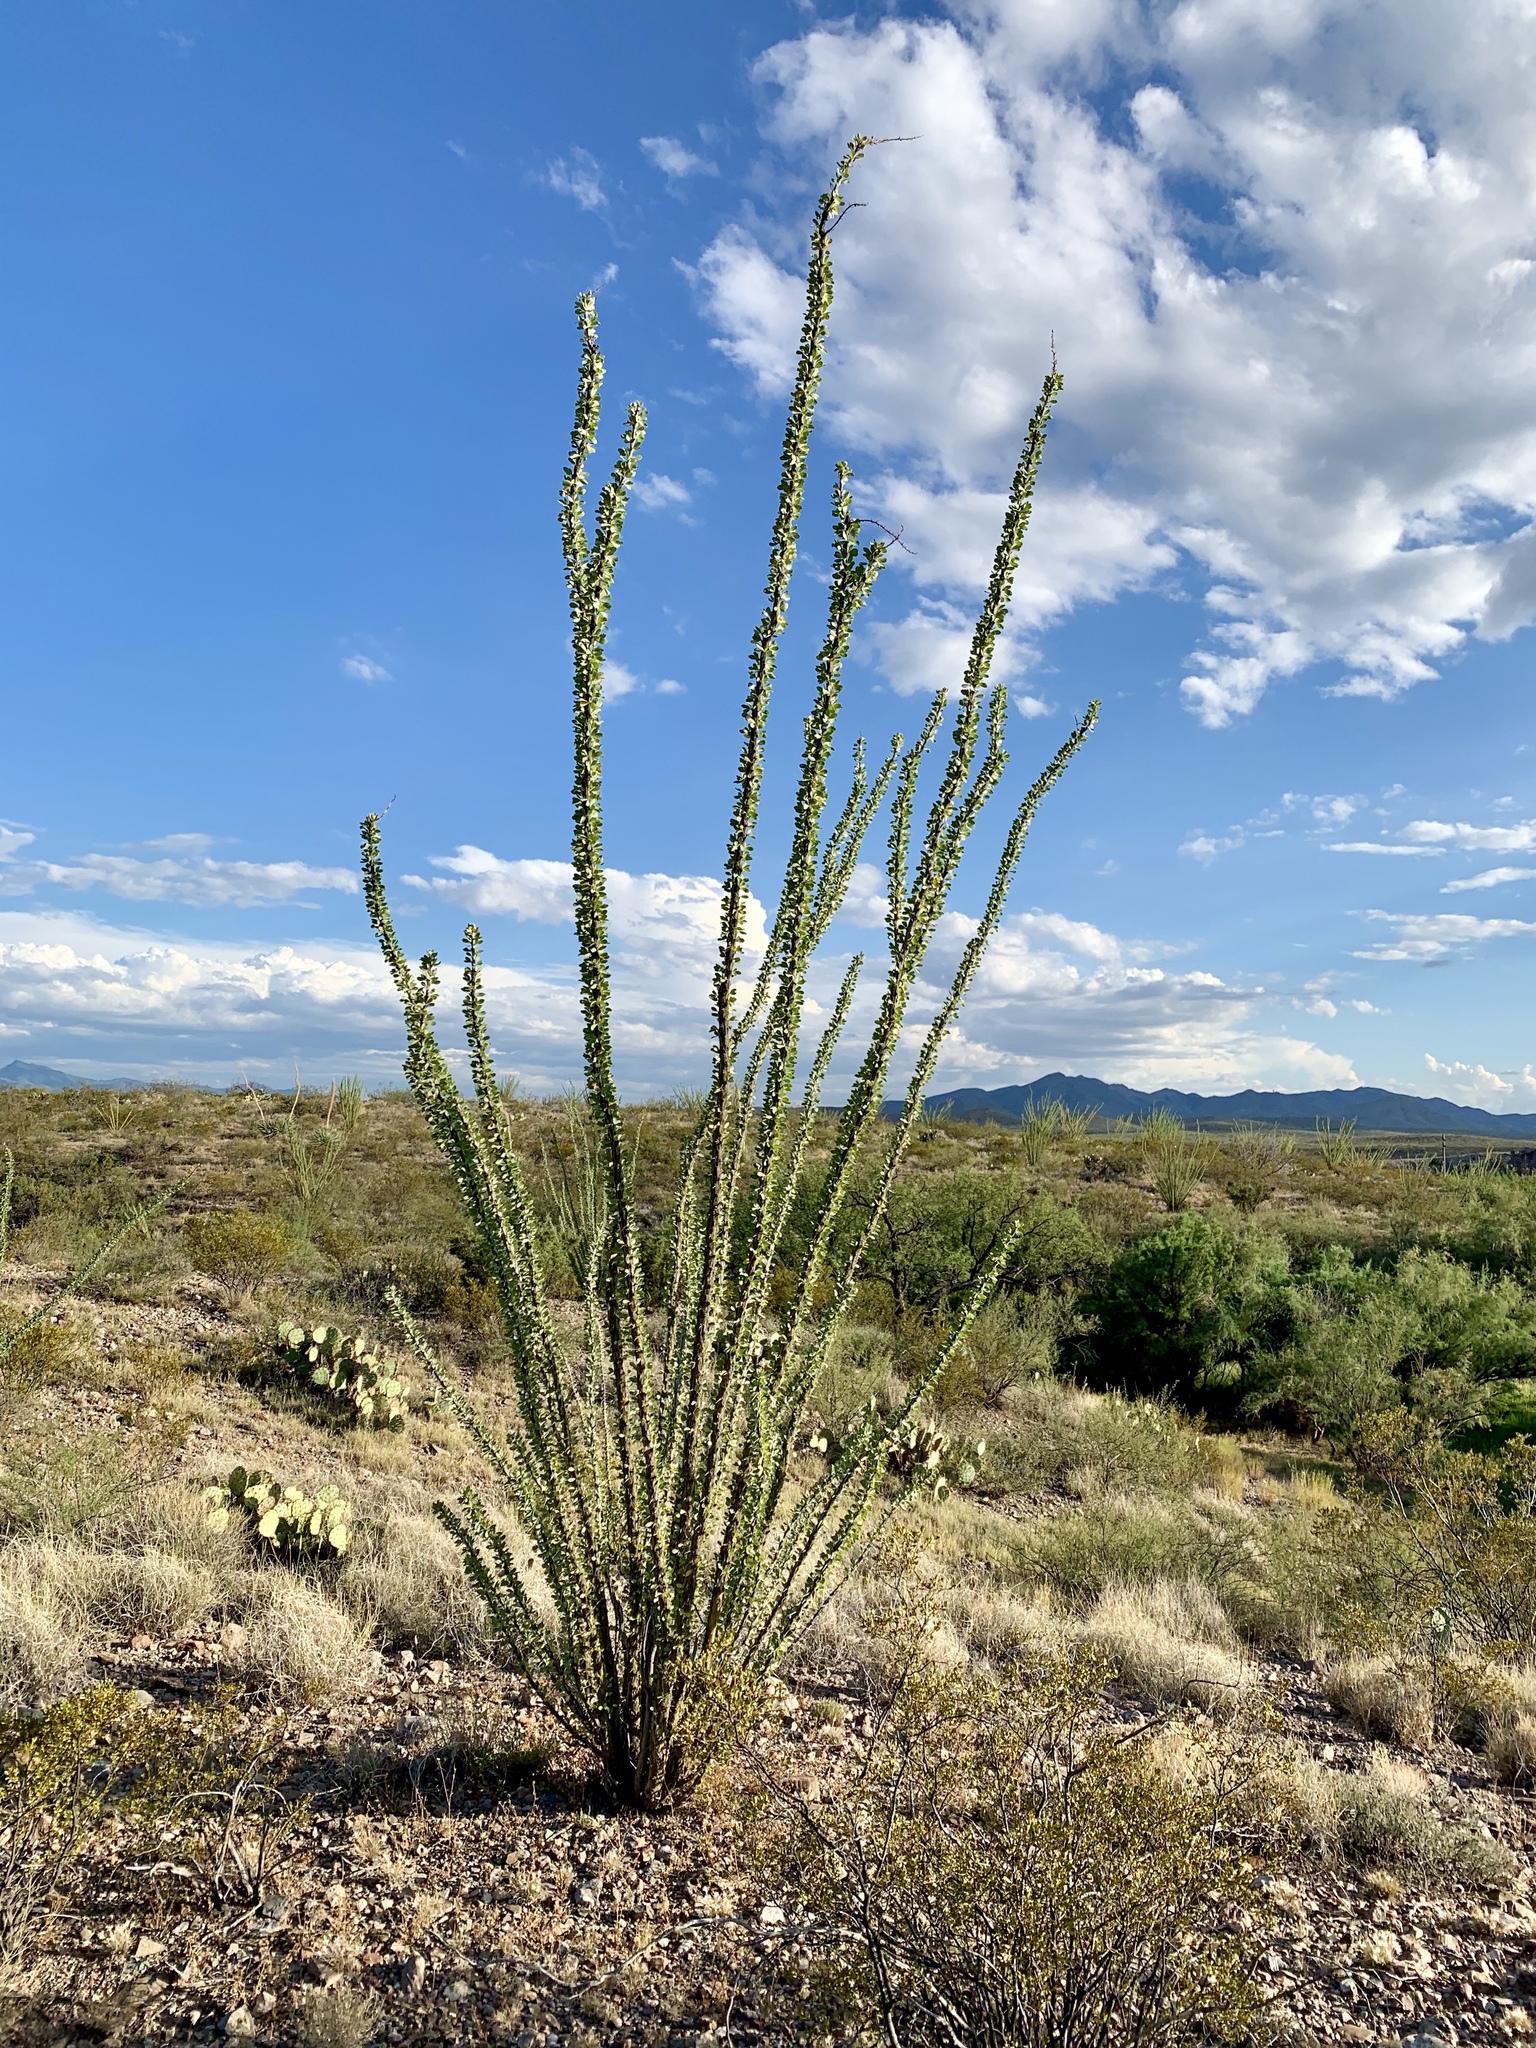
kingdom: Plantae
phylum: Tracheophyta
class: Magnoliopsida
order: Ericales
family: Fouquieriaceae
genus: Fouquieria
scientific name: Fouquieria splendens
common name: Vine-cactus
